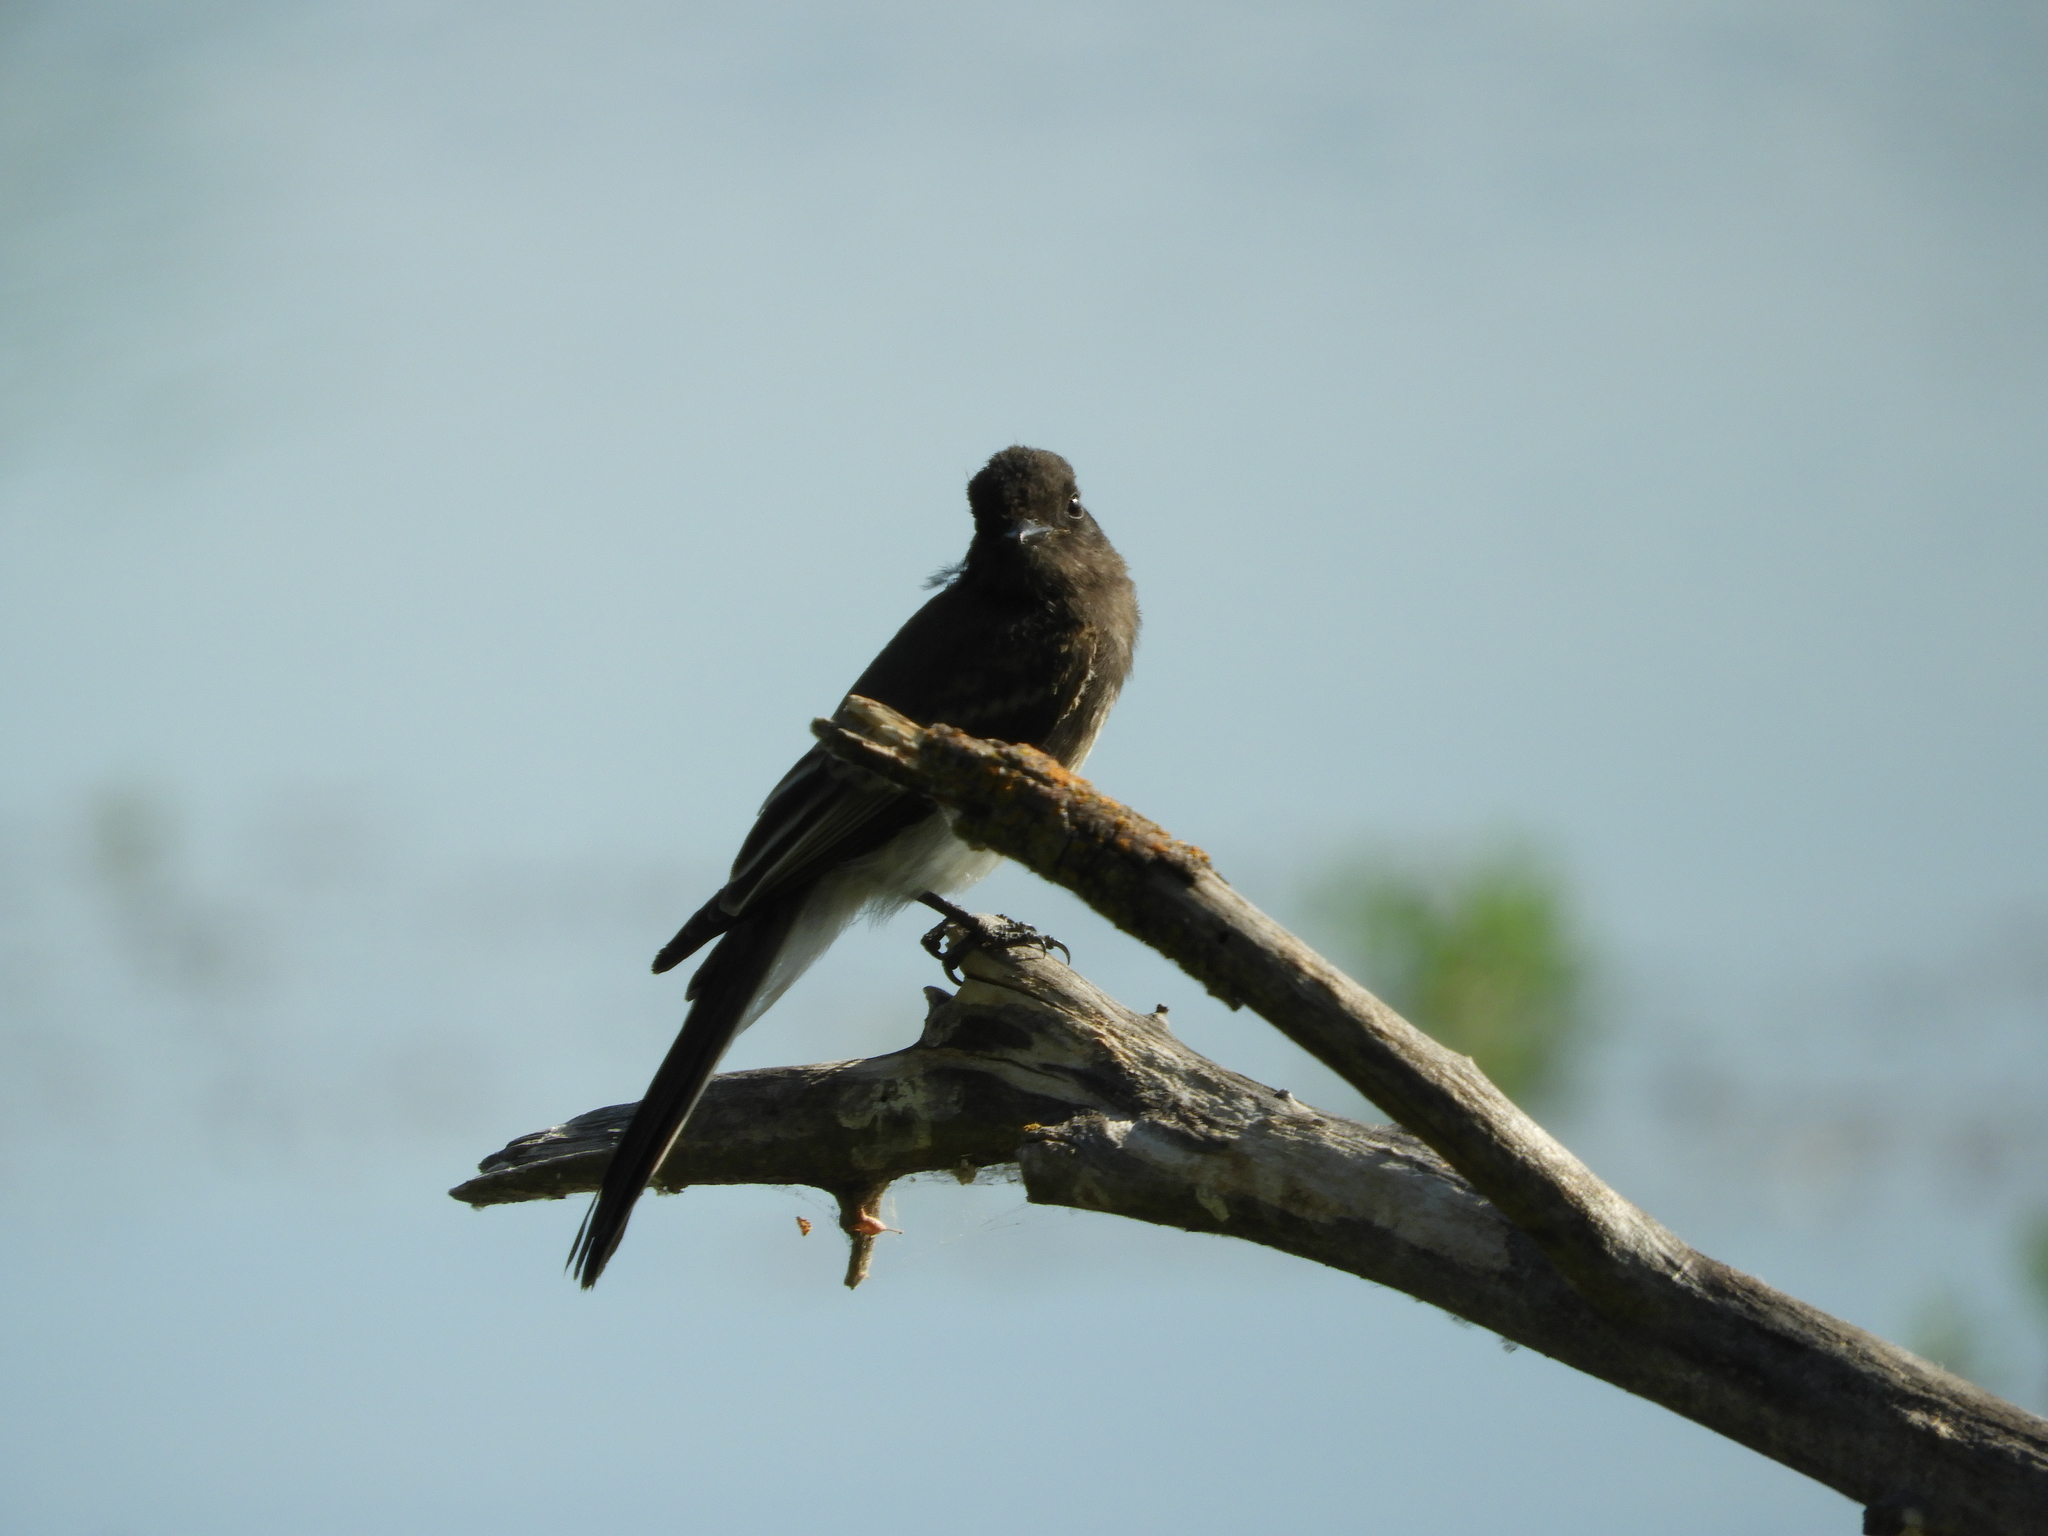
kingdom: Animalia
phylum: Chordata
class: Aves
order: Passeriformes
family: Tyrannidae
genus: Sayornis
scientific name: Sayornis nigricans
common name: Black phoebe
